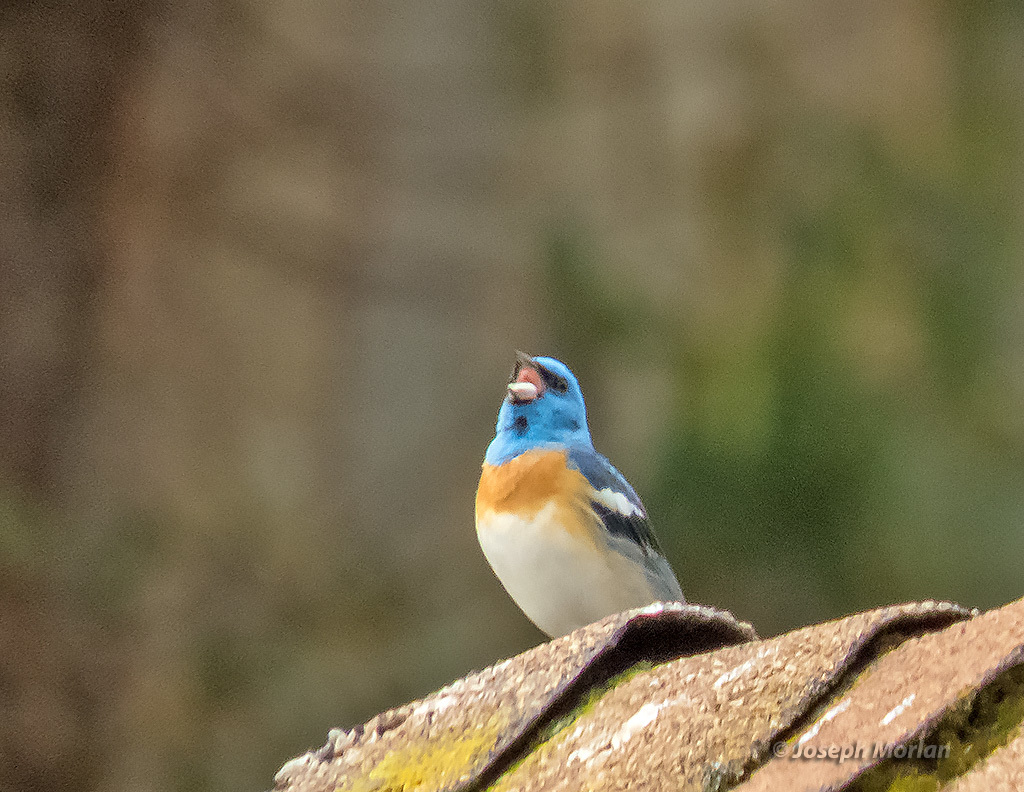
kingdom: Animalia
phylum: Chordata
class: Aves
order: Passeriformes
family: Cardinalidae
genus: Passerina
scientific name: Passerina amoena
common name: Lazuli bunting
